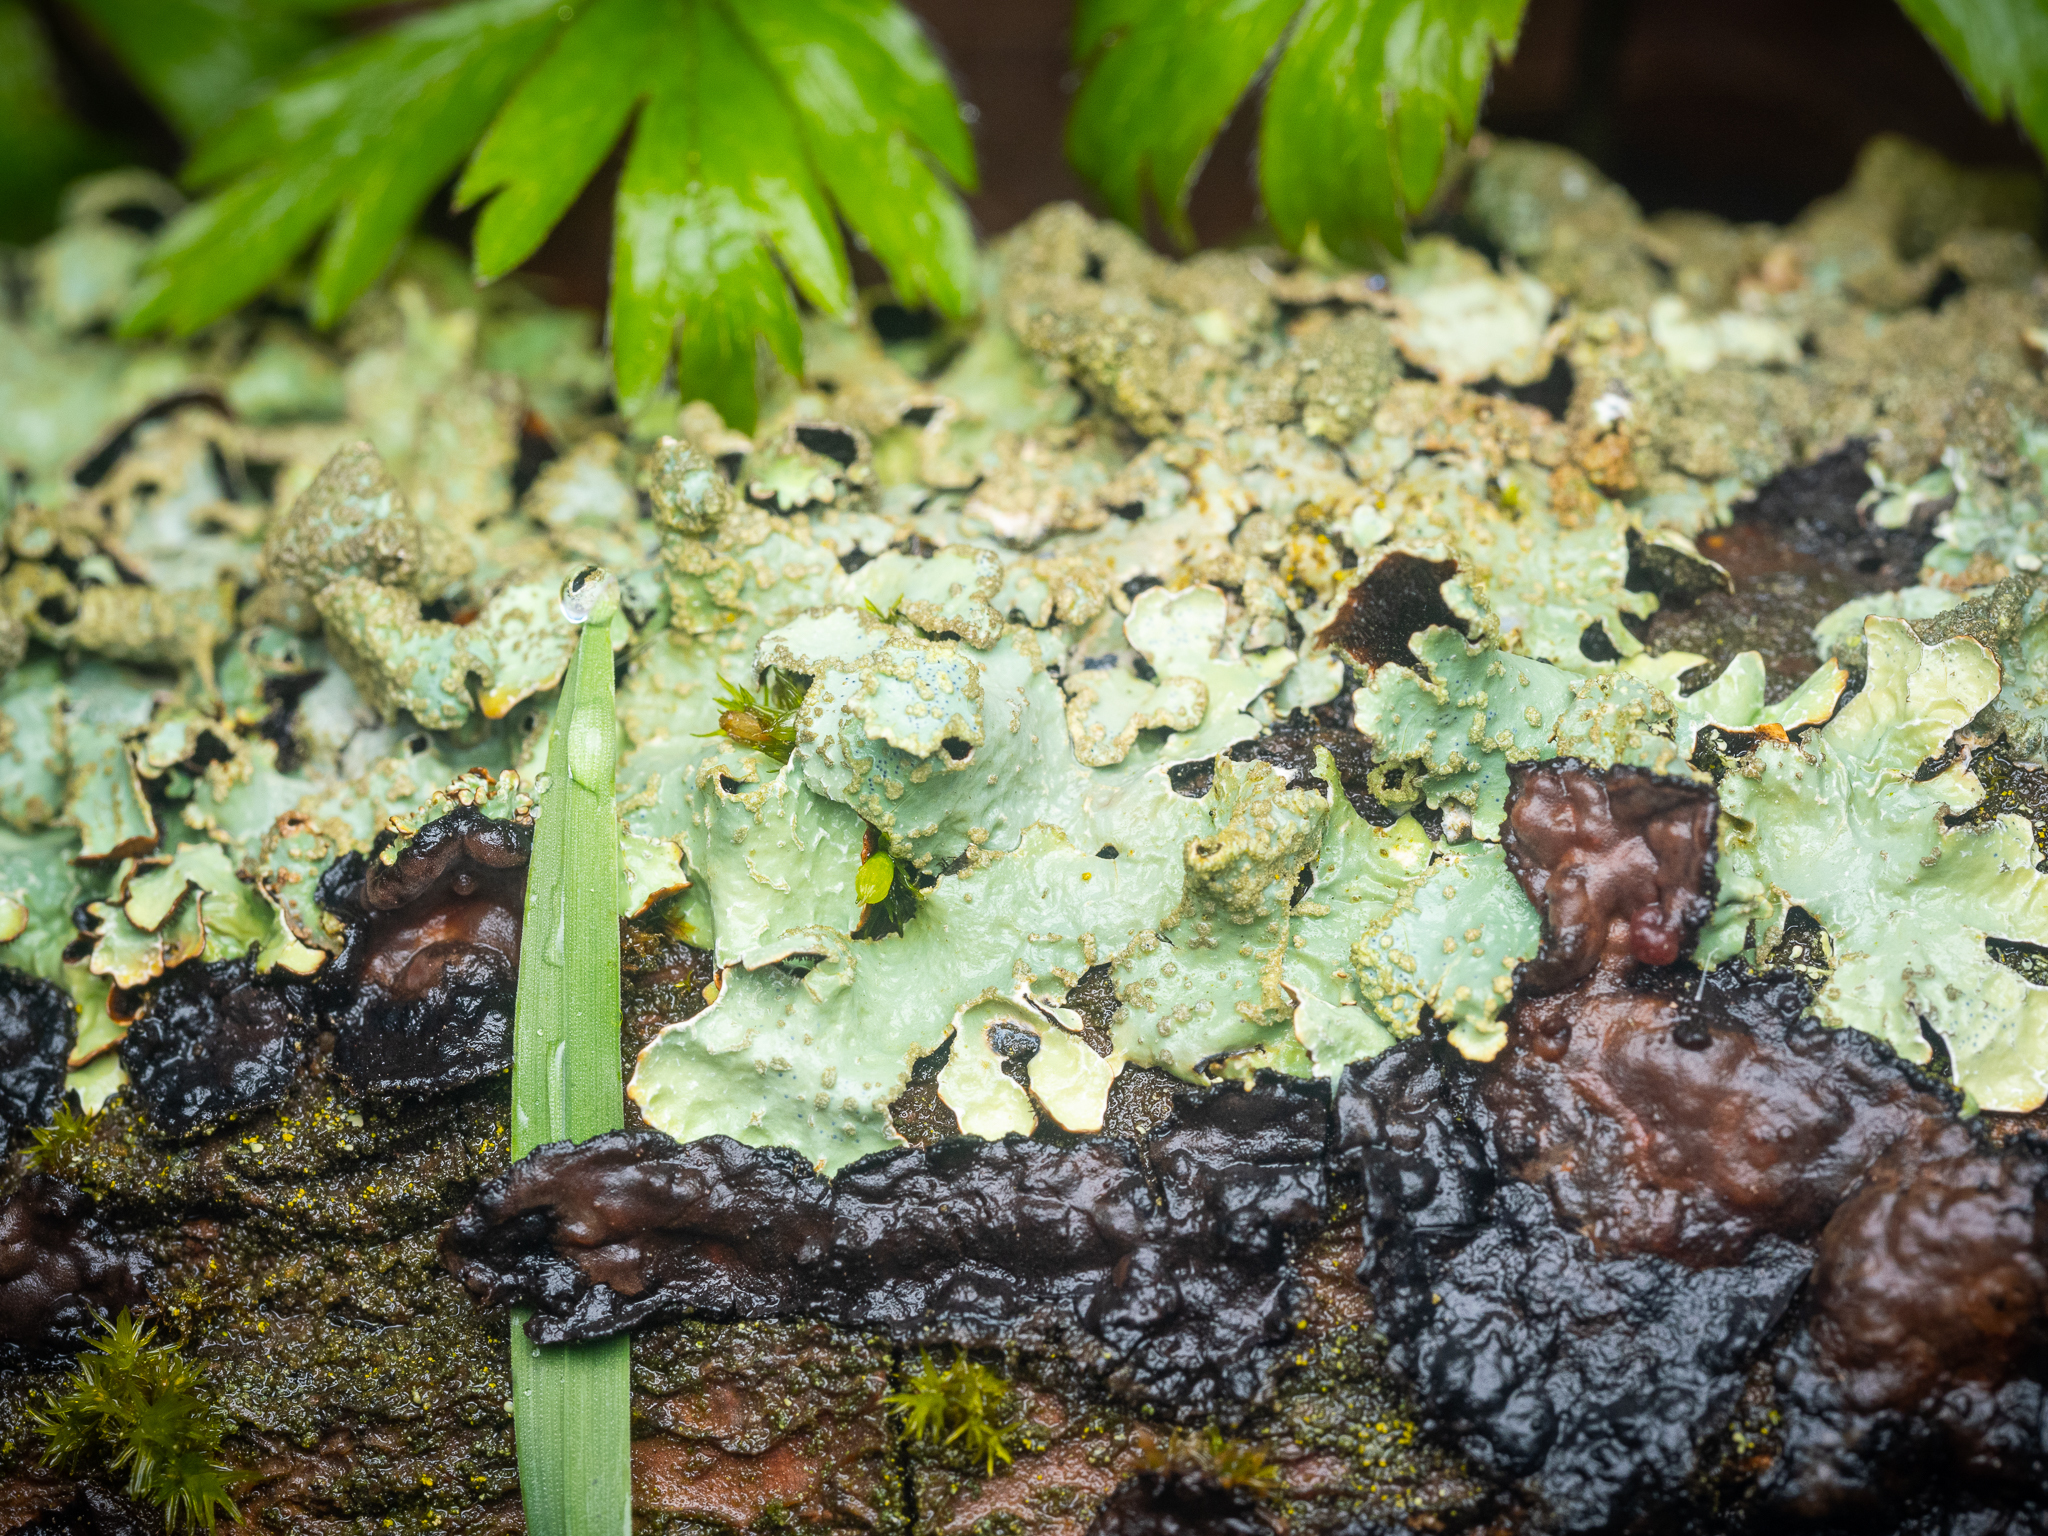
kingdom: Fungi
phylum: Ascomycota
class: Lecanoromycetes
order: Lecanorales
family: Parmeliaceae
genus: Parmelia
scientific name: Parmelia sulcata
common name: Netted shield lichen
